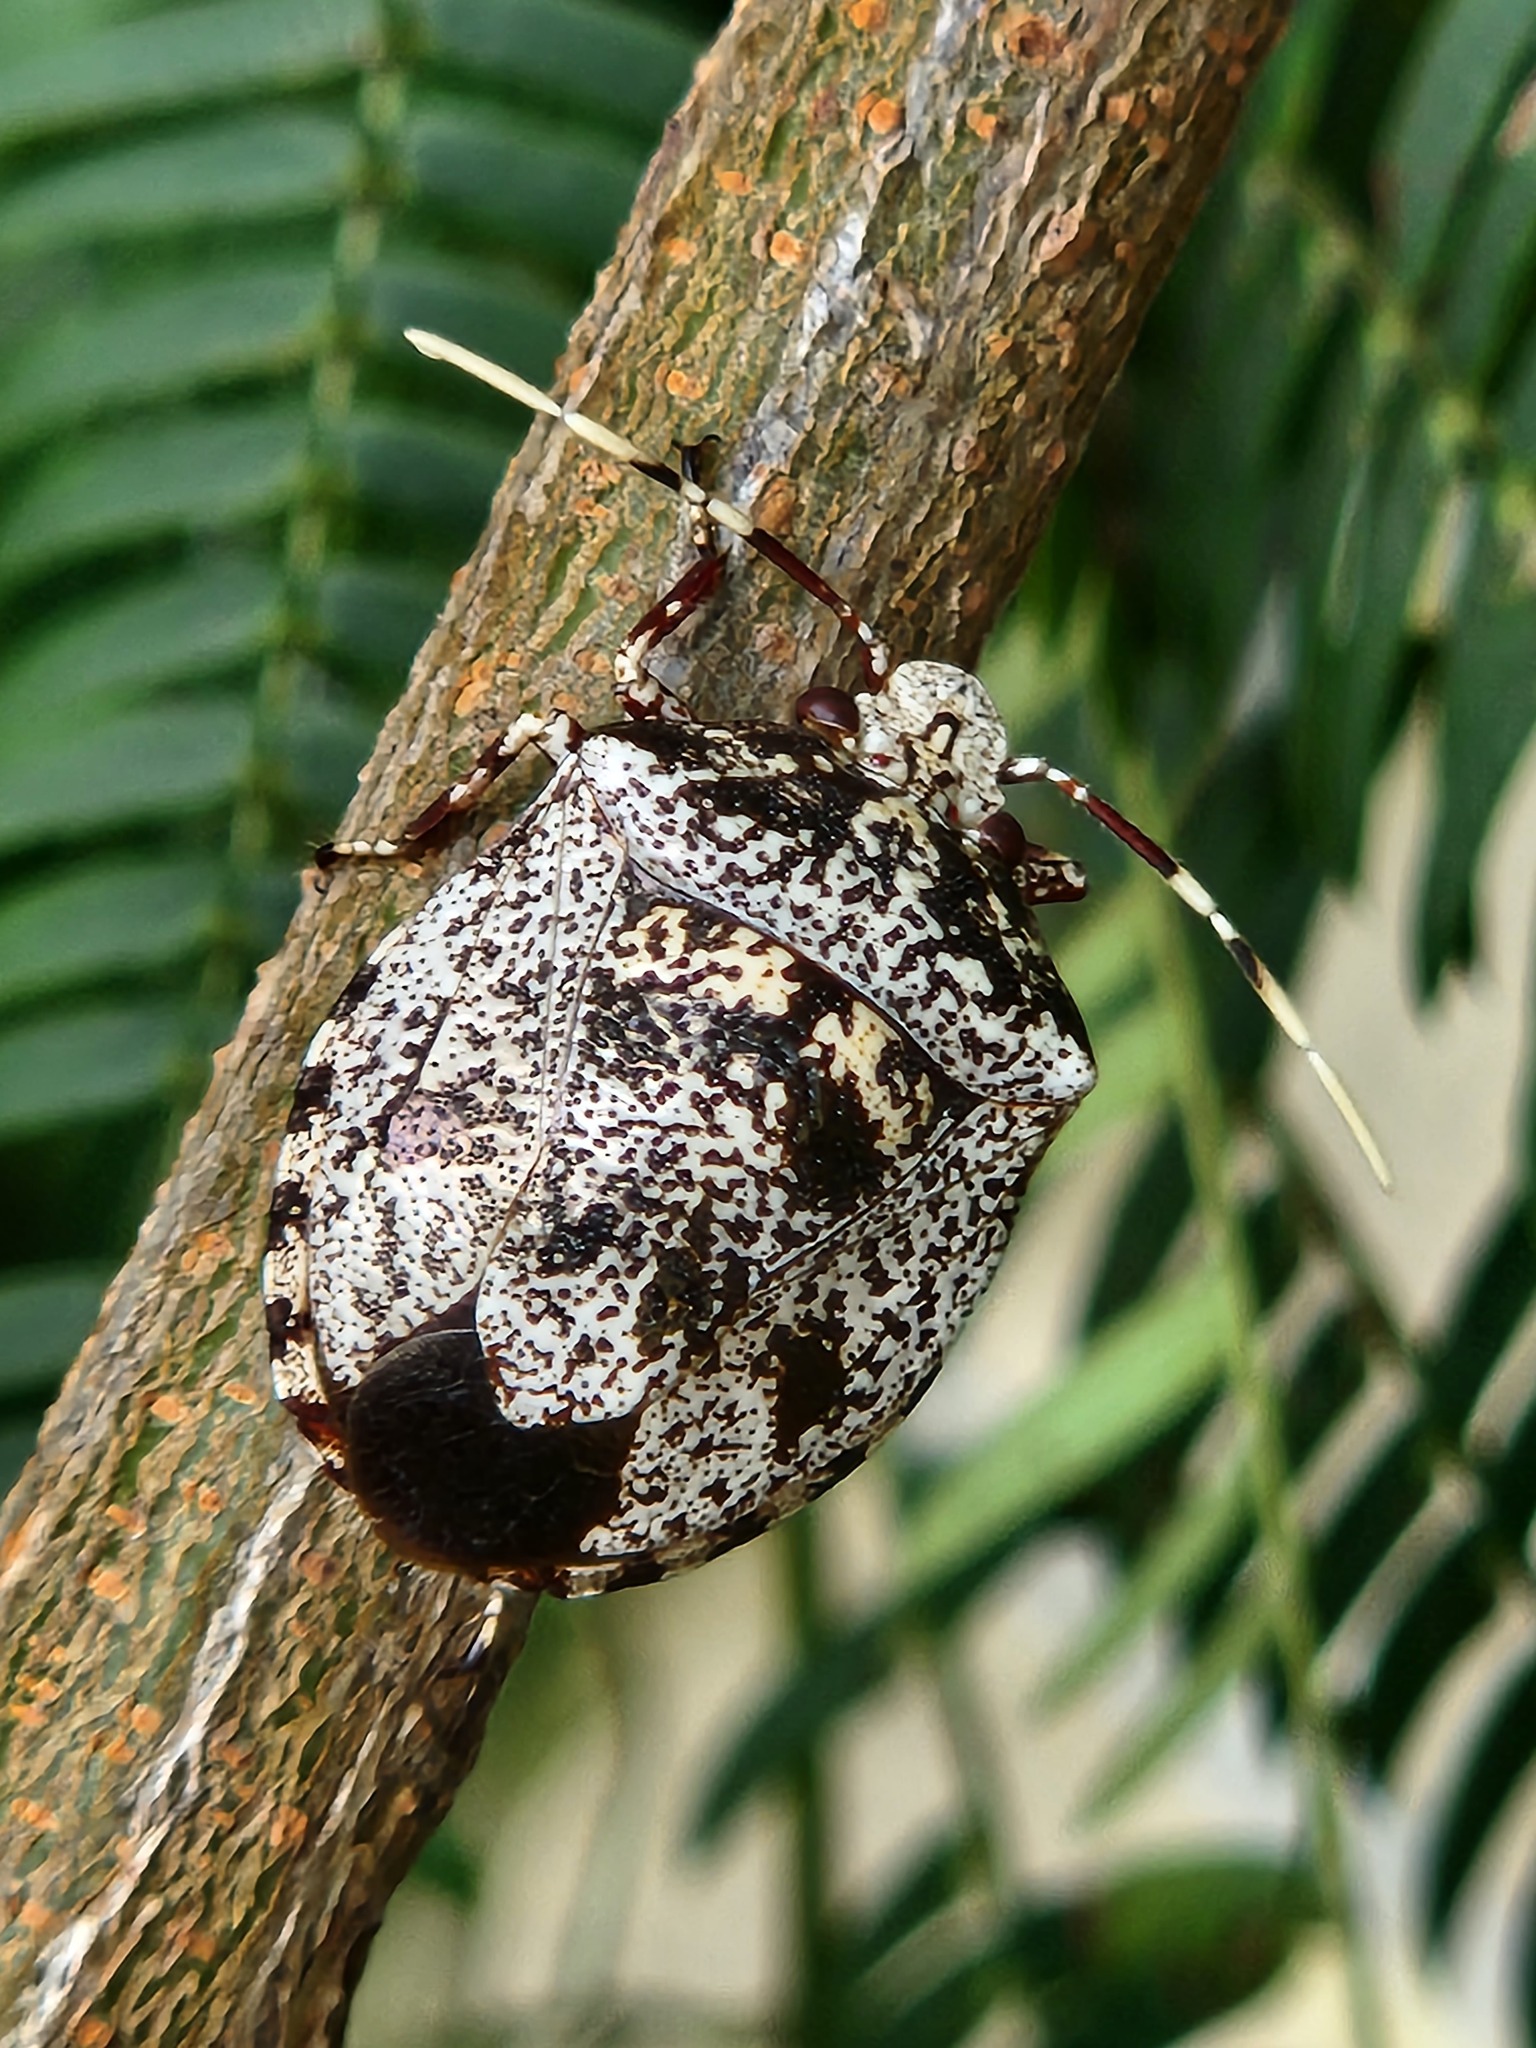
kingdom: Animalia
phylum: Arthropoda
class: Insecta
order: Hemiptera
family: Pentatomidae
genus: Antiteuchus
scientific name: Antiteuchus mixtus
